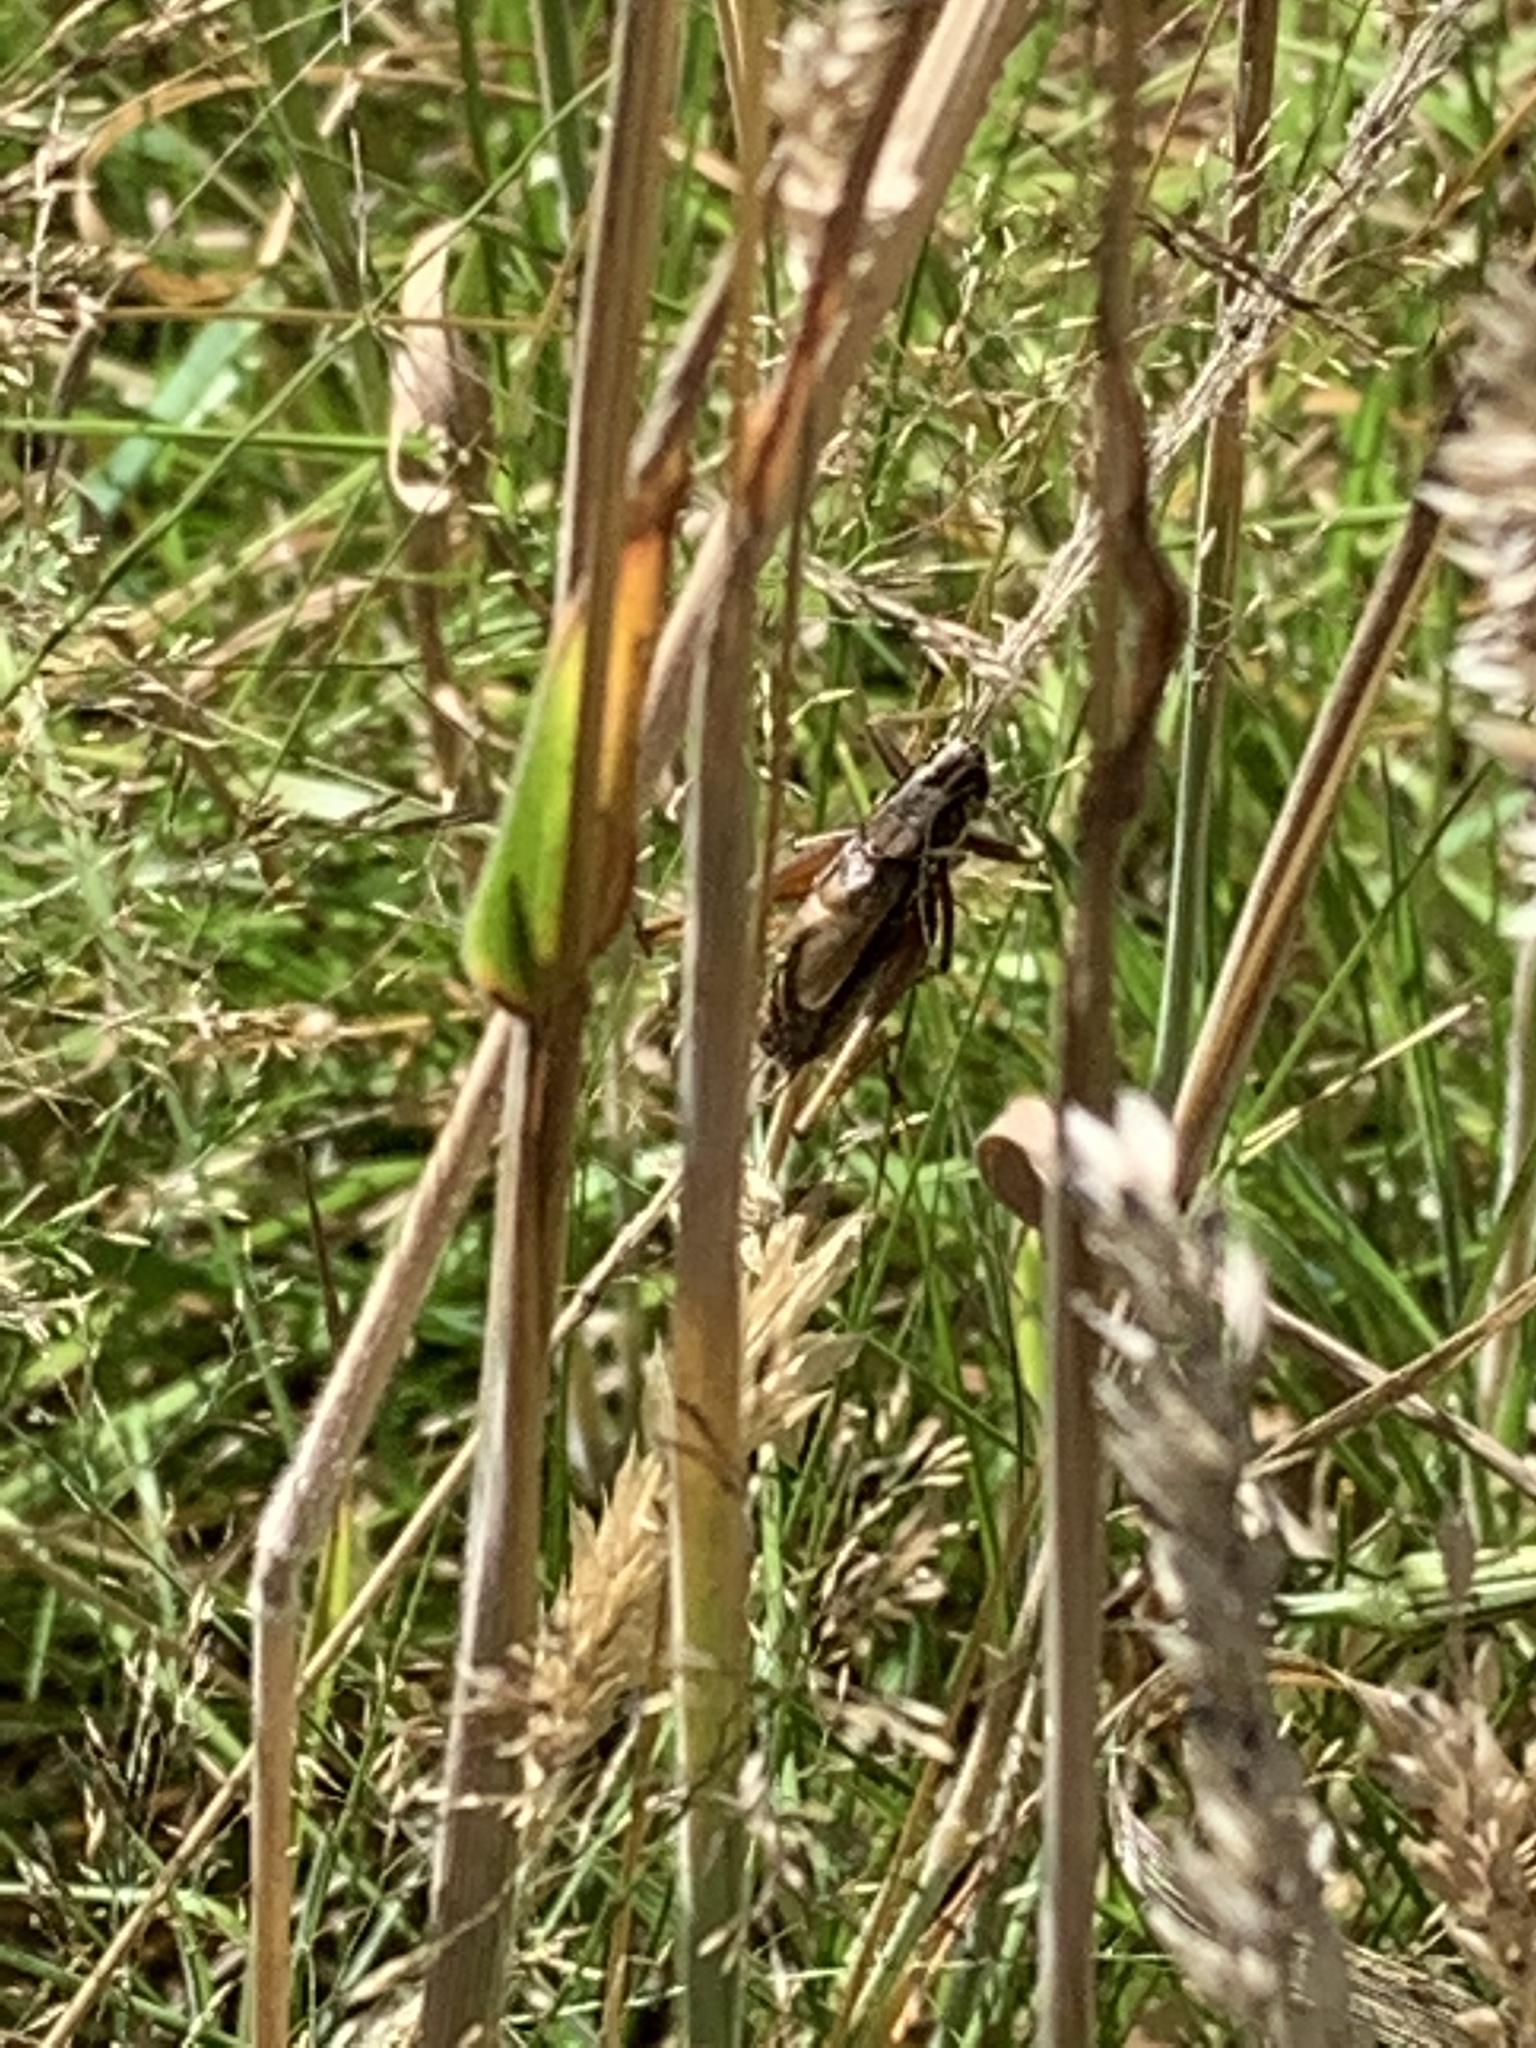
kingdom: Animalia
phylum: Arthropoda
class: Insecta
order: Orthoptera
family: Tettigoniidae
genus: Roeseliana
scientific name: Roeseliana roeselii
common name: Roesel's bush cricket
